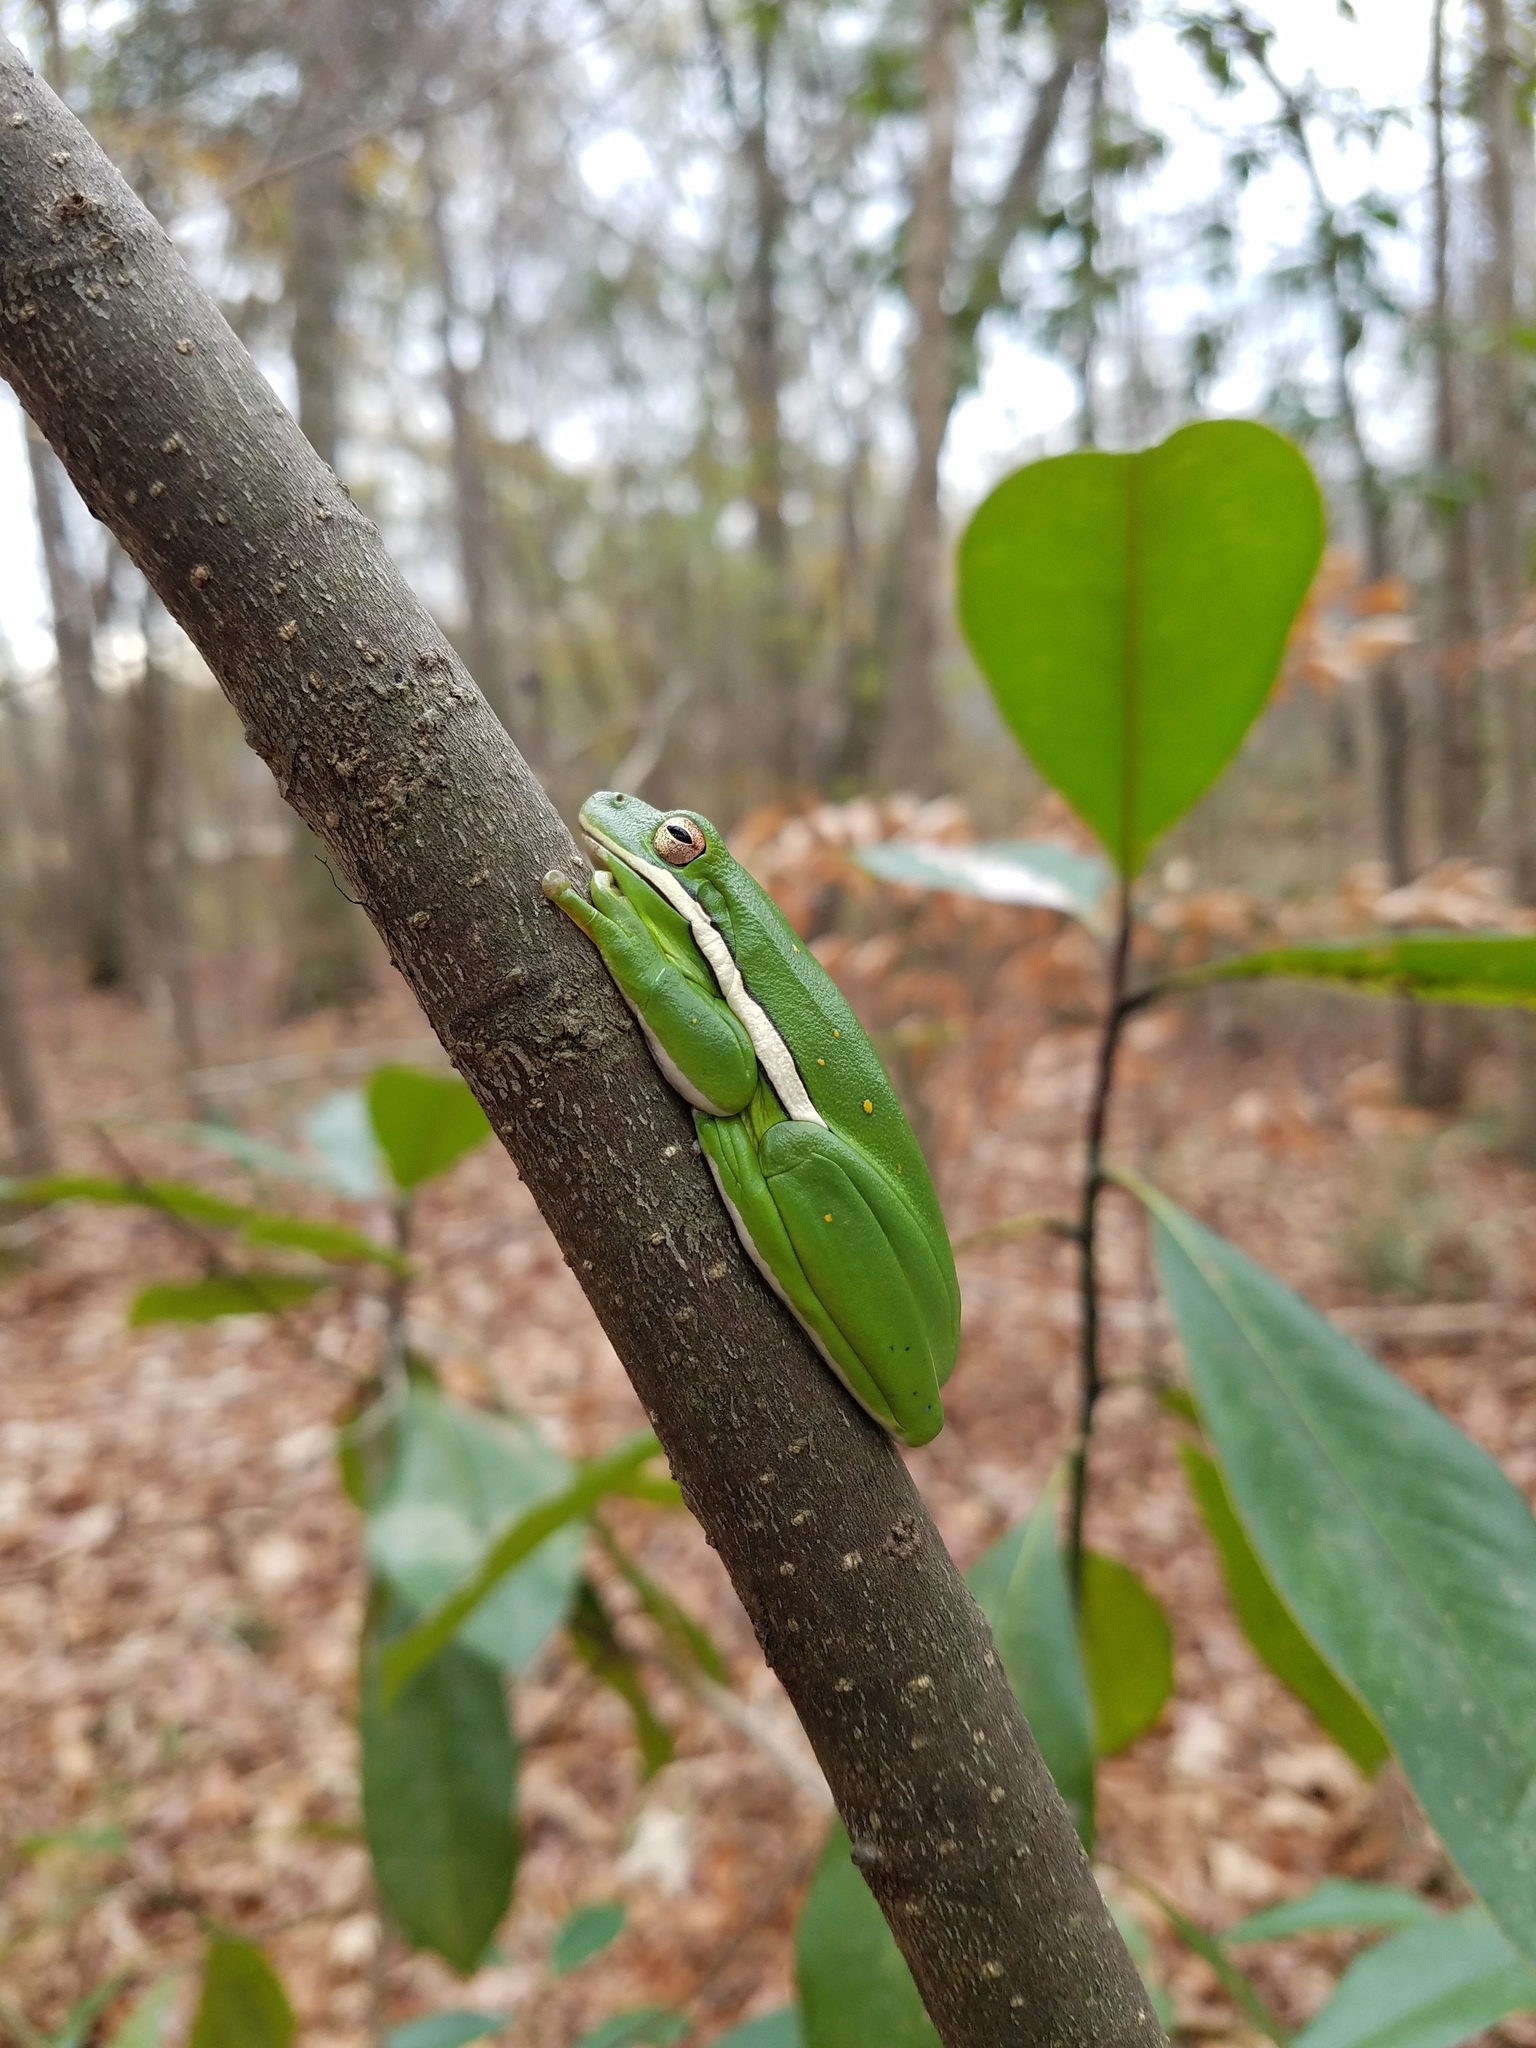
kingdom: Animalia
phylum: Chordata
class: Amphibia
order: Anura
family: Hylidae
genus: Dryophytes
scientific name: Dryophytes cinereus
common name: Green treefrog
